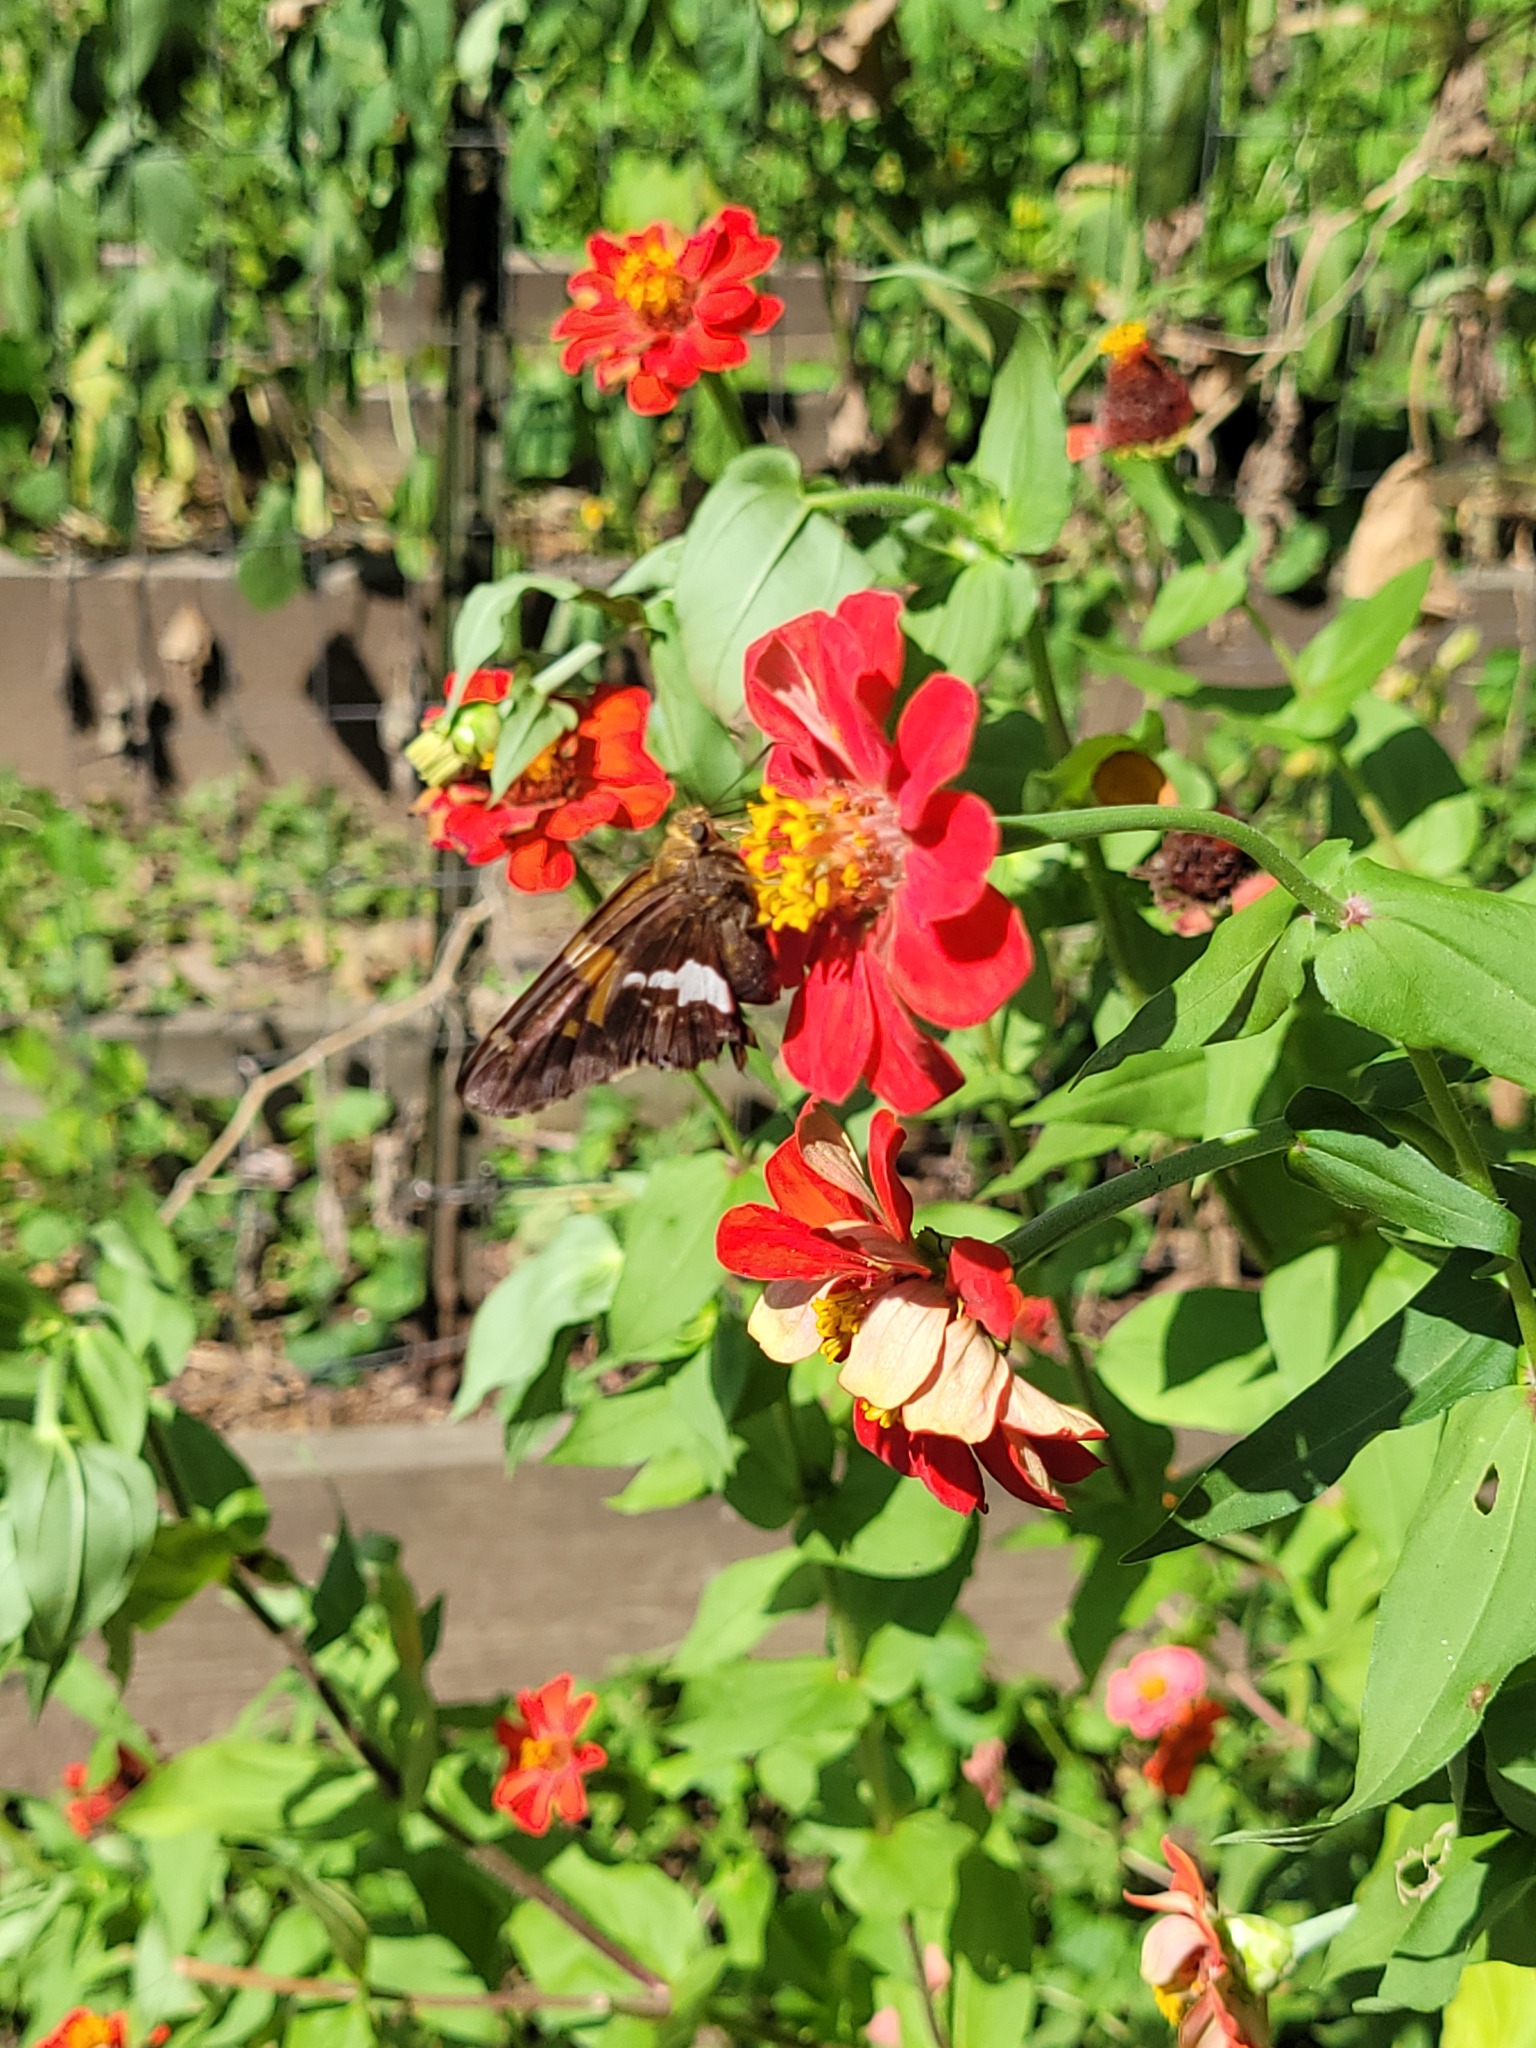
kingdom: Animalia
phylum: Arthropoda
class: Insecta
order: Lepidoptera
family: Hesperiidae
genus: Epargyreus
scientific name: Epargyreus clarus
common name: Silver-spotted skipper
